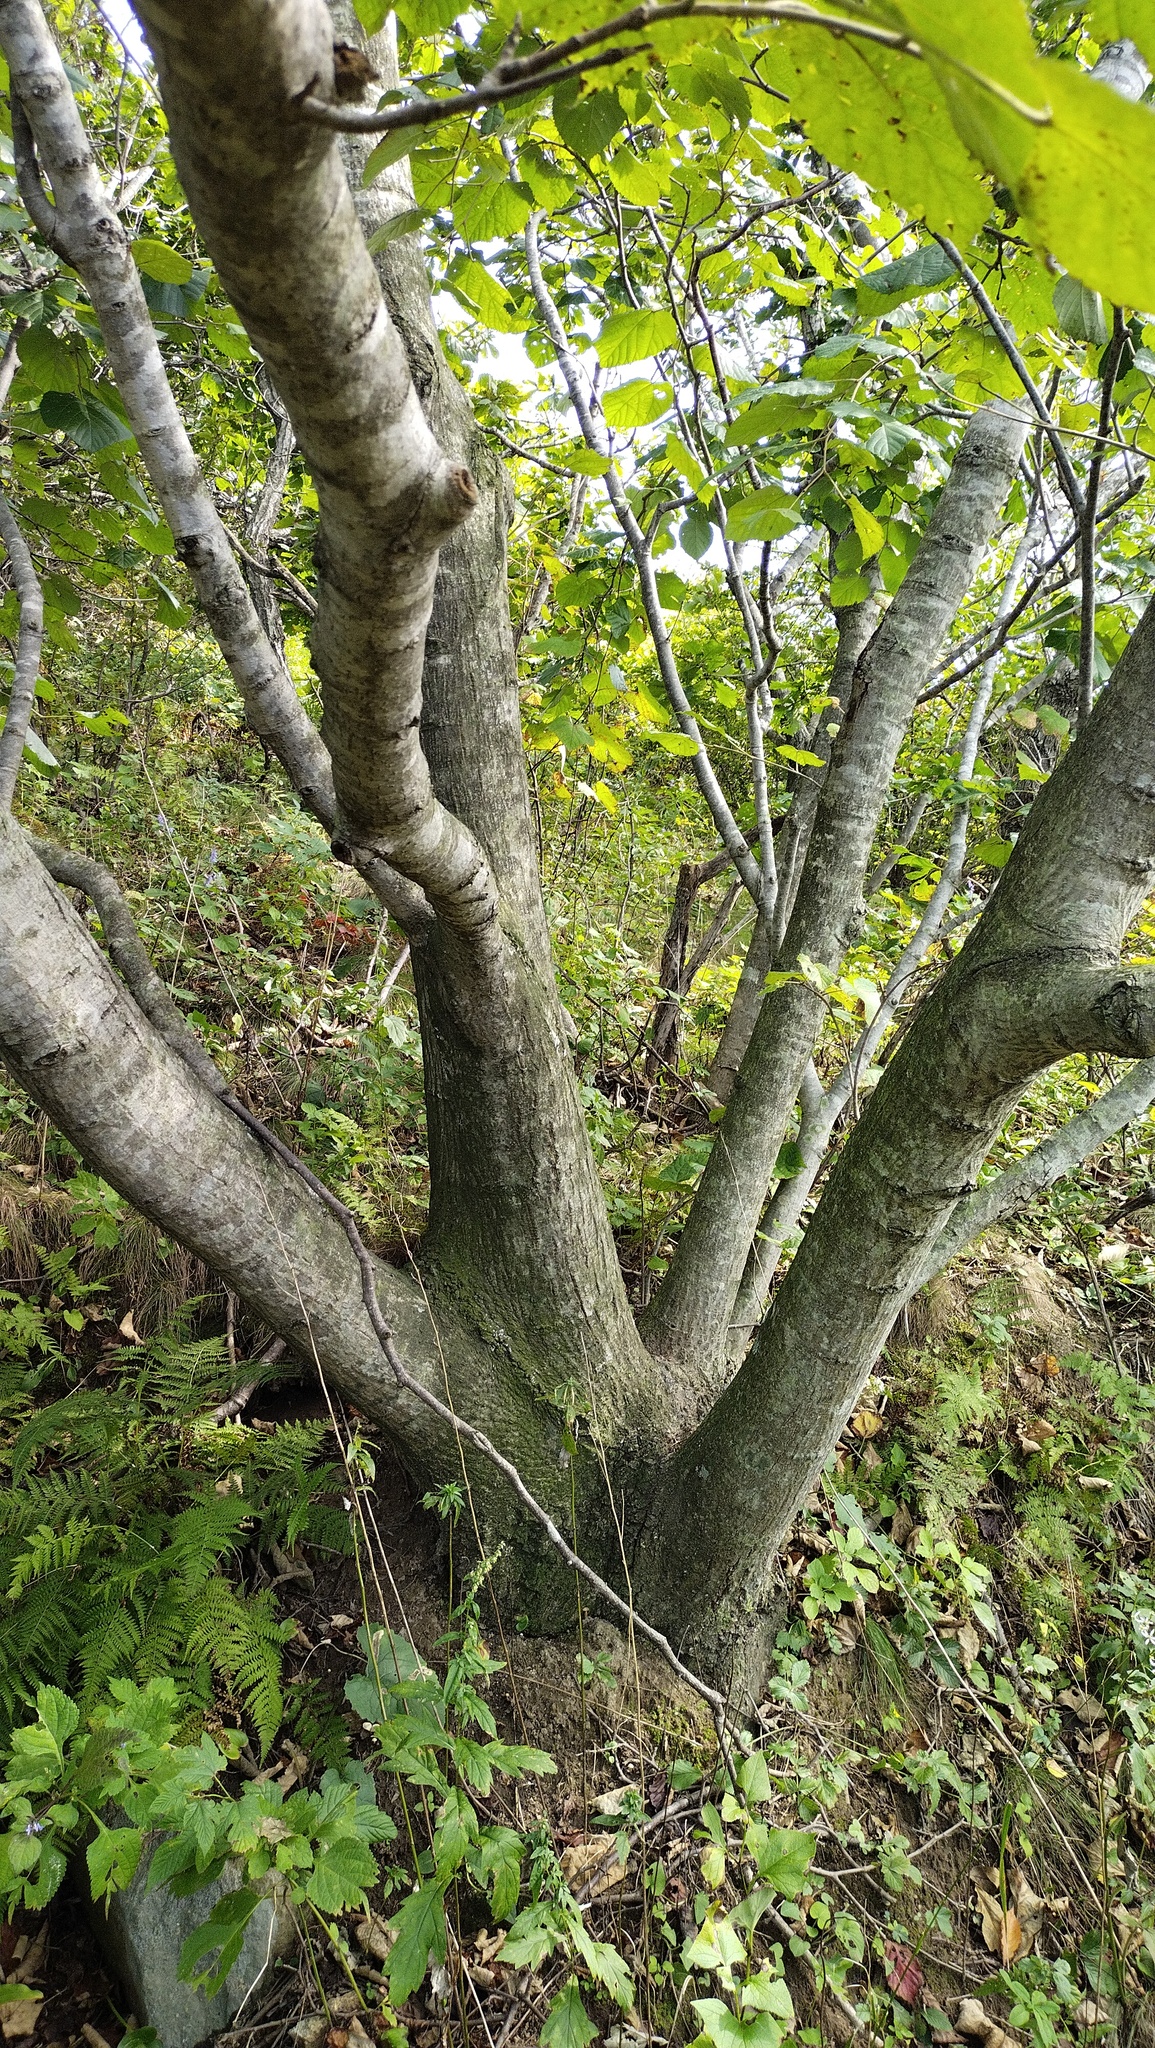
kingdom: Plantae
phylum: Tracheophyta
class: Magnoliopsida
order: Malvales
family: Malvaceae
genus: Tilia
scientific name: Tilia mandshurica
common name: Manchurian linden
